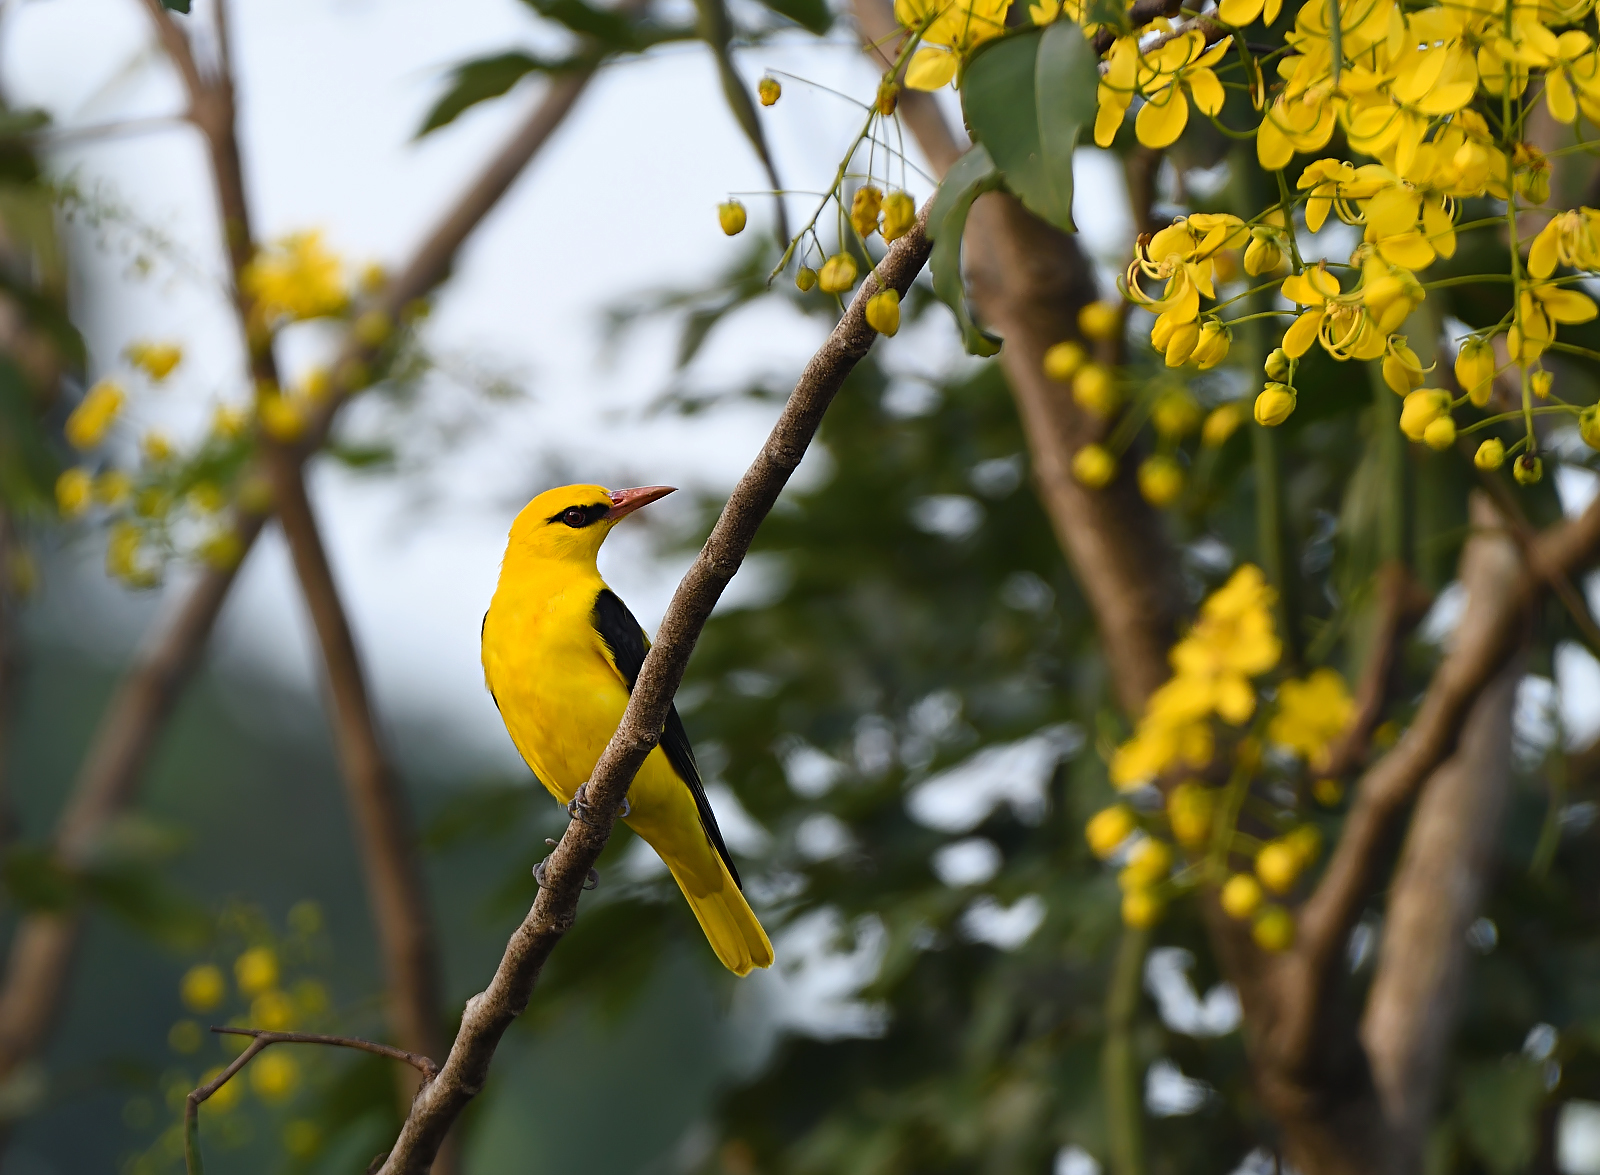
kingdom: Animalia
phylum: Chordata
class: Aves
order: Passeriformes
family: Oriolidae
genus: Oriolus
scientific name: Oriolus kundoo
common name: Indian golden oriole
